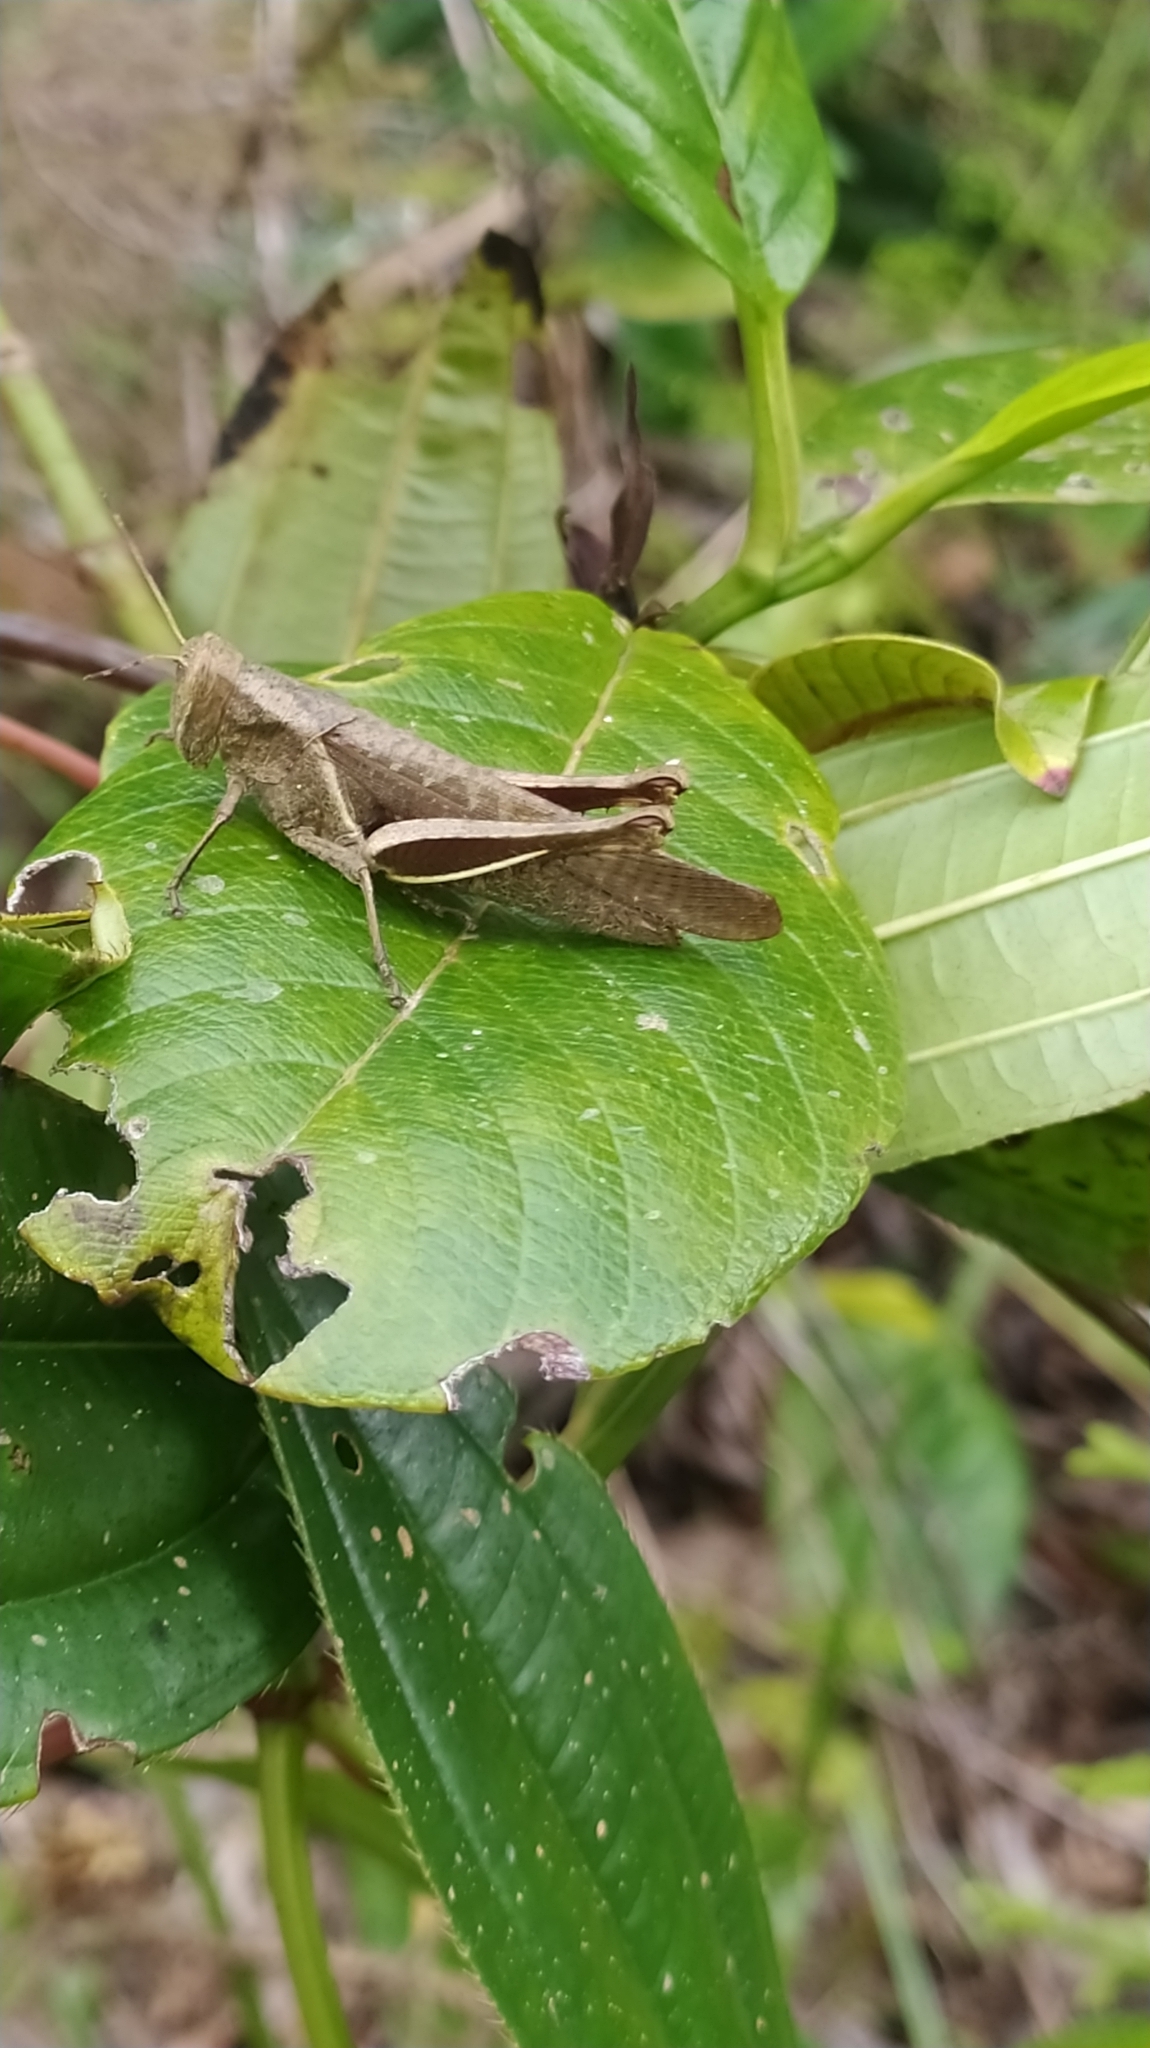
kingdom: Animalia
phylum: Arthropoda
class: Insecta
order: Orthoptera
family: Acrididae
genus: Abracris
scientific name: Abracris flavolineata
